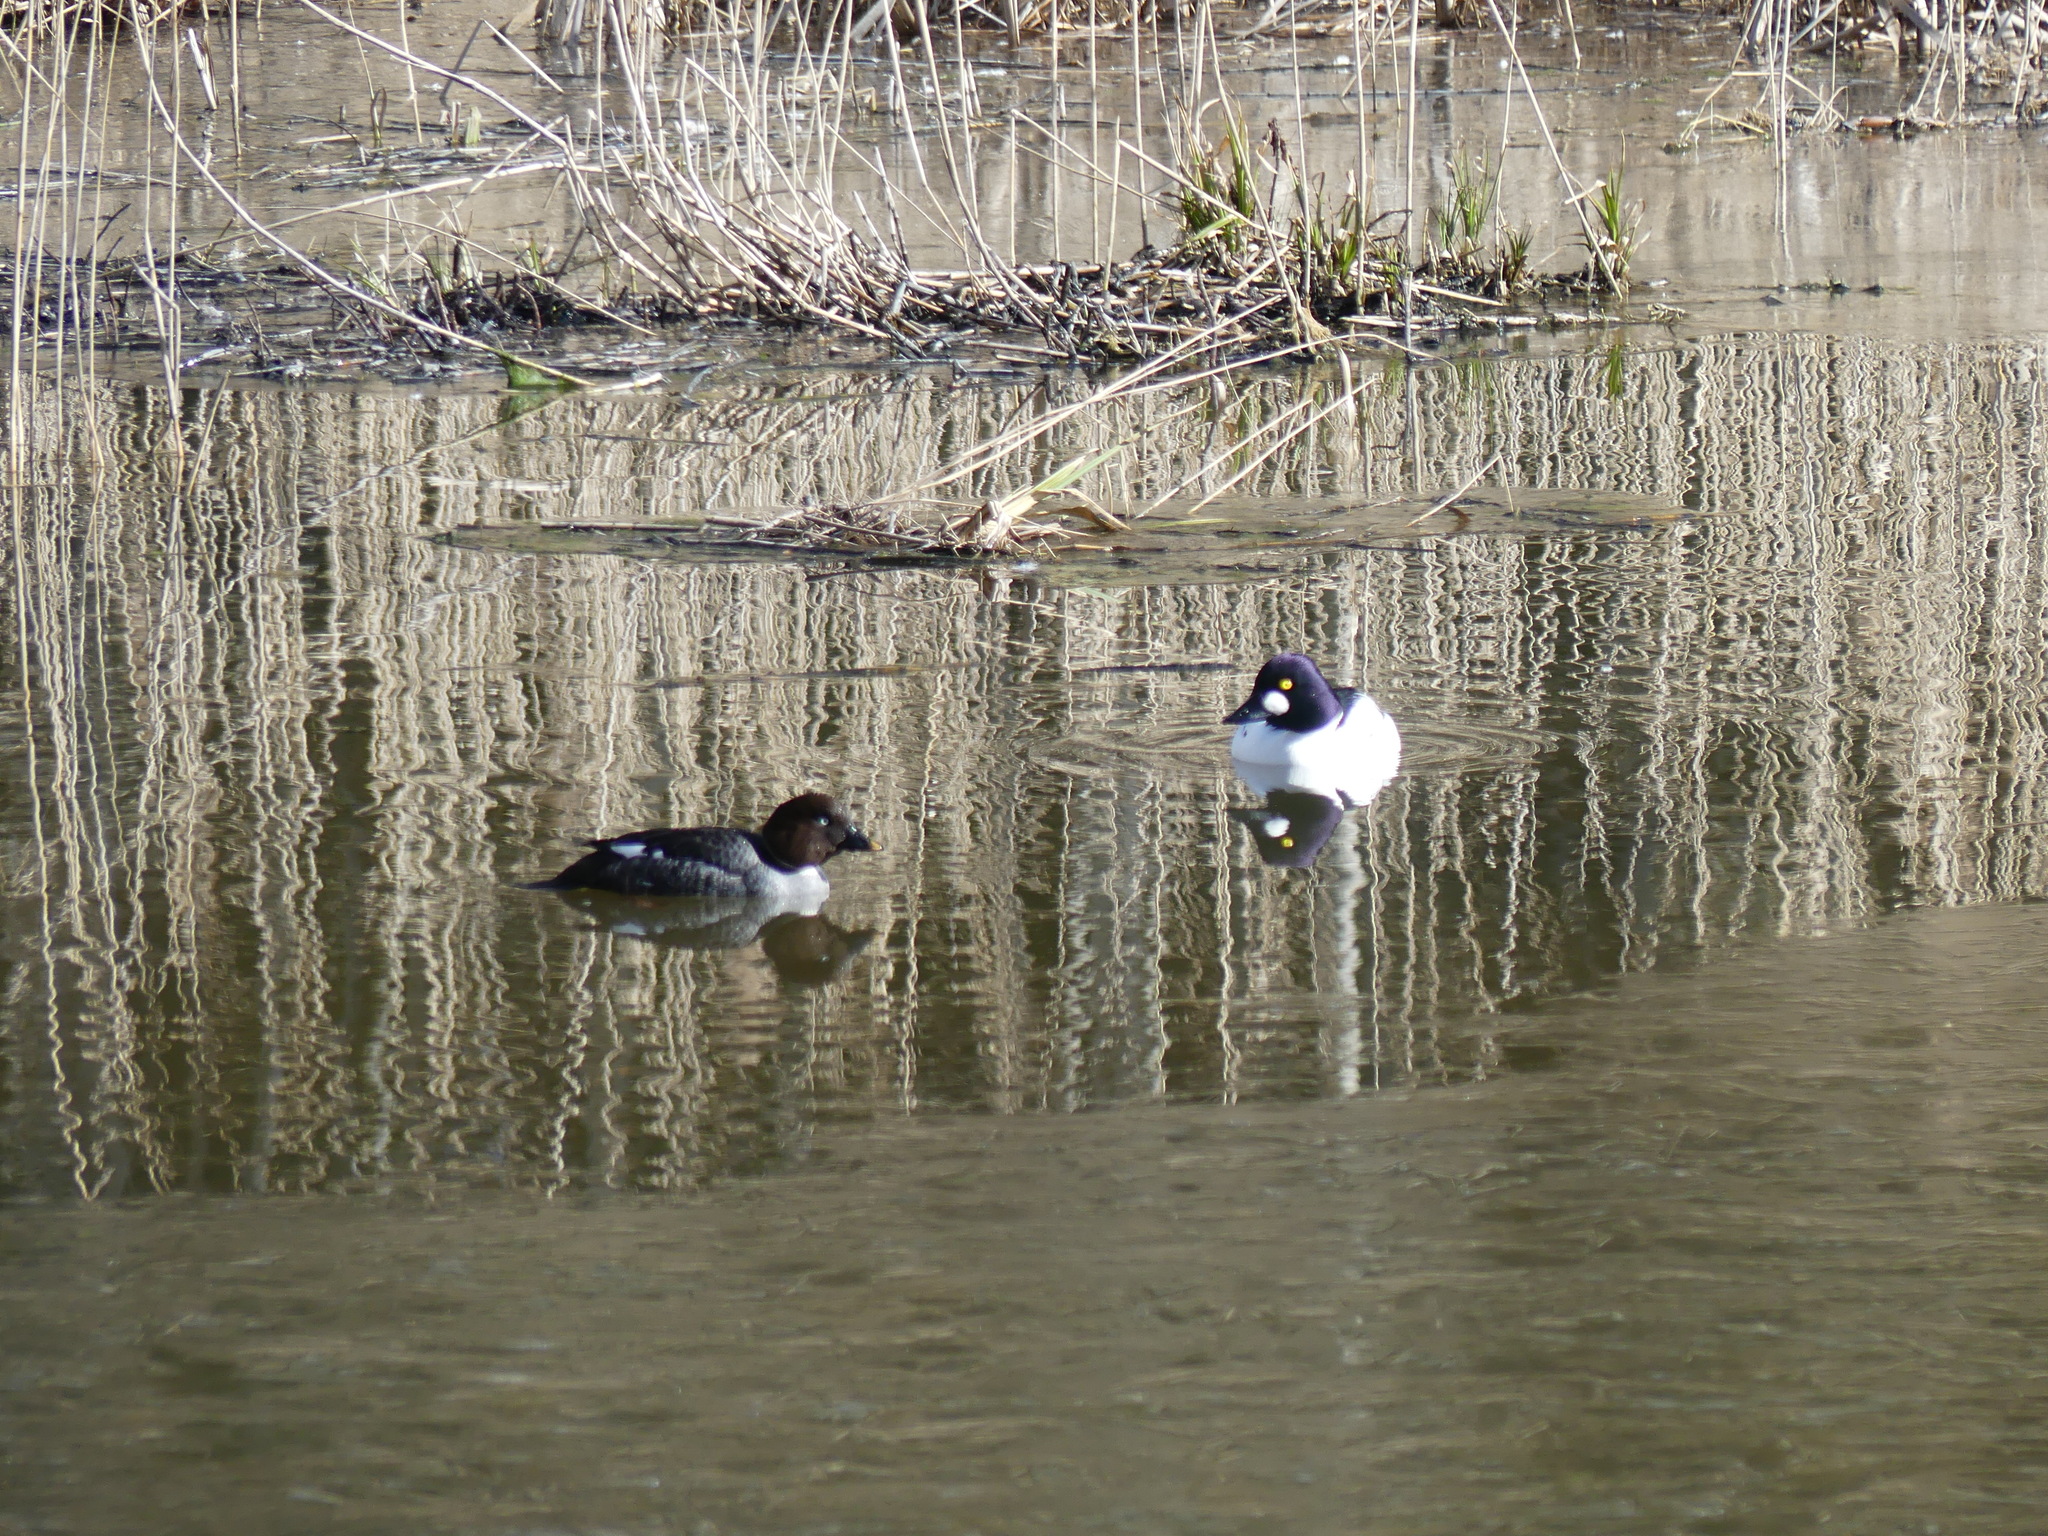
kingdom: Animalia
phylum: Chordata
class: Aves
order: Anseriformes
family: Anatidae
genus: Bucephala
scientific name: Bucephala clangula
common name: Common goldeneye
